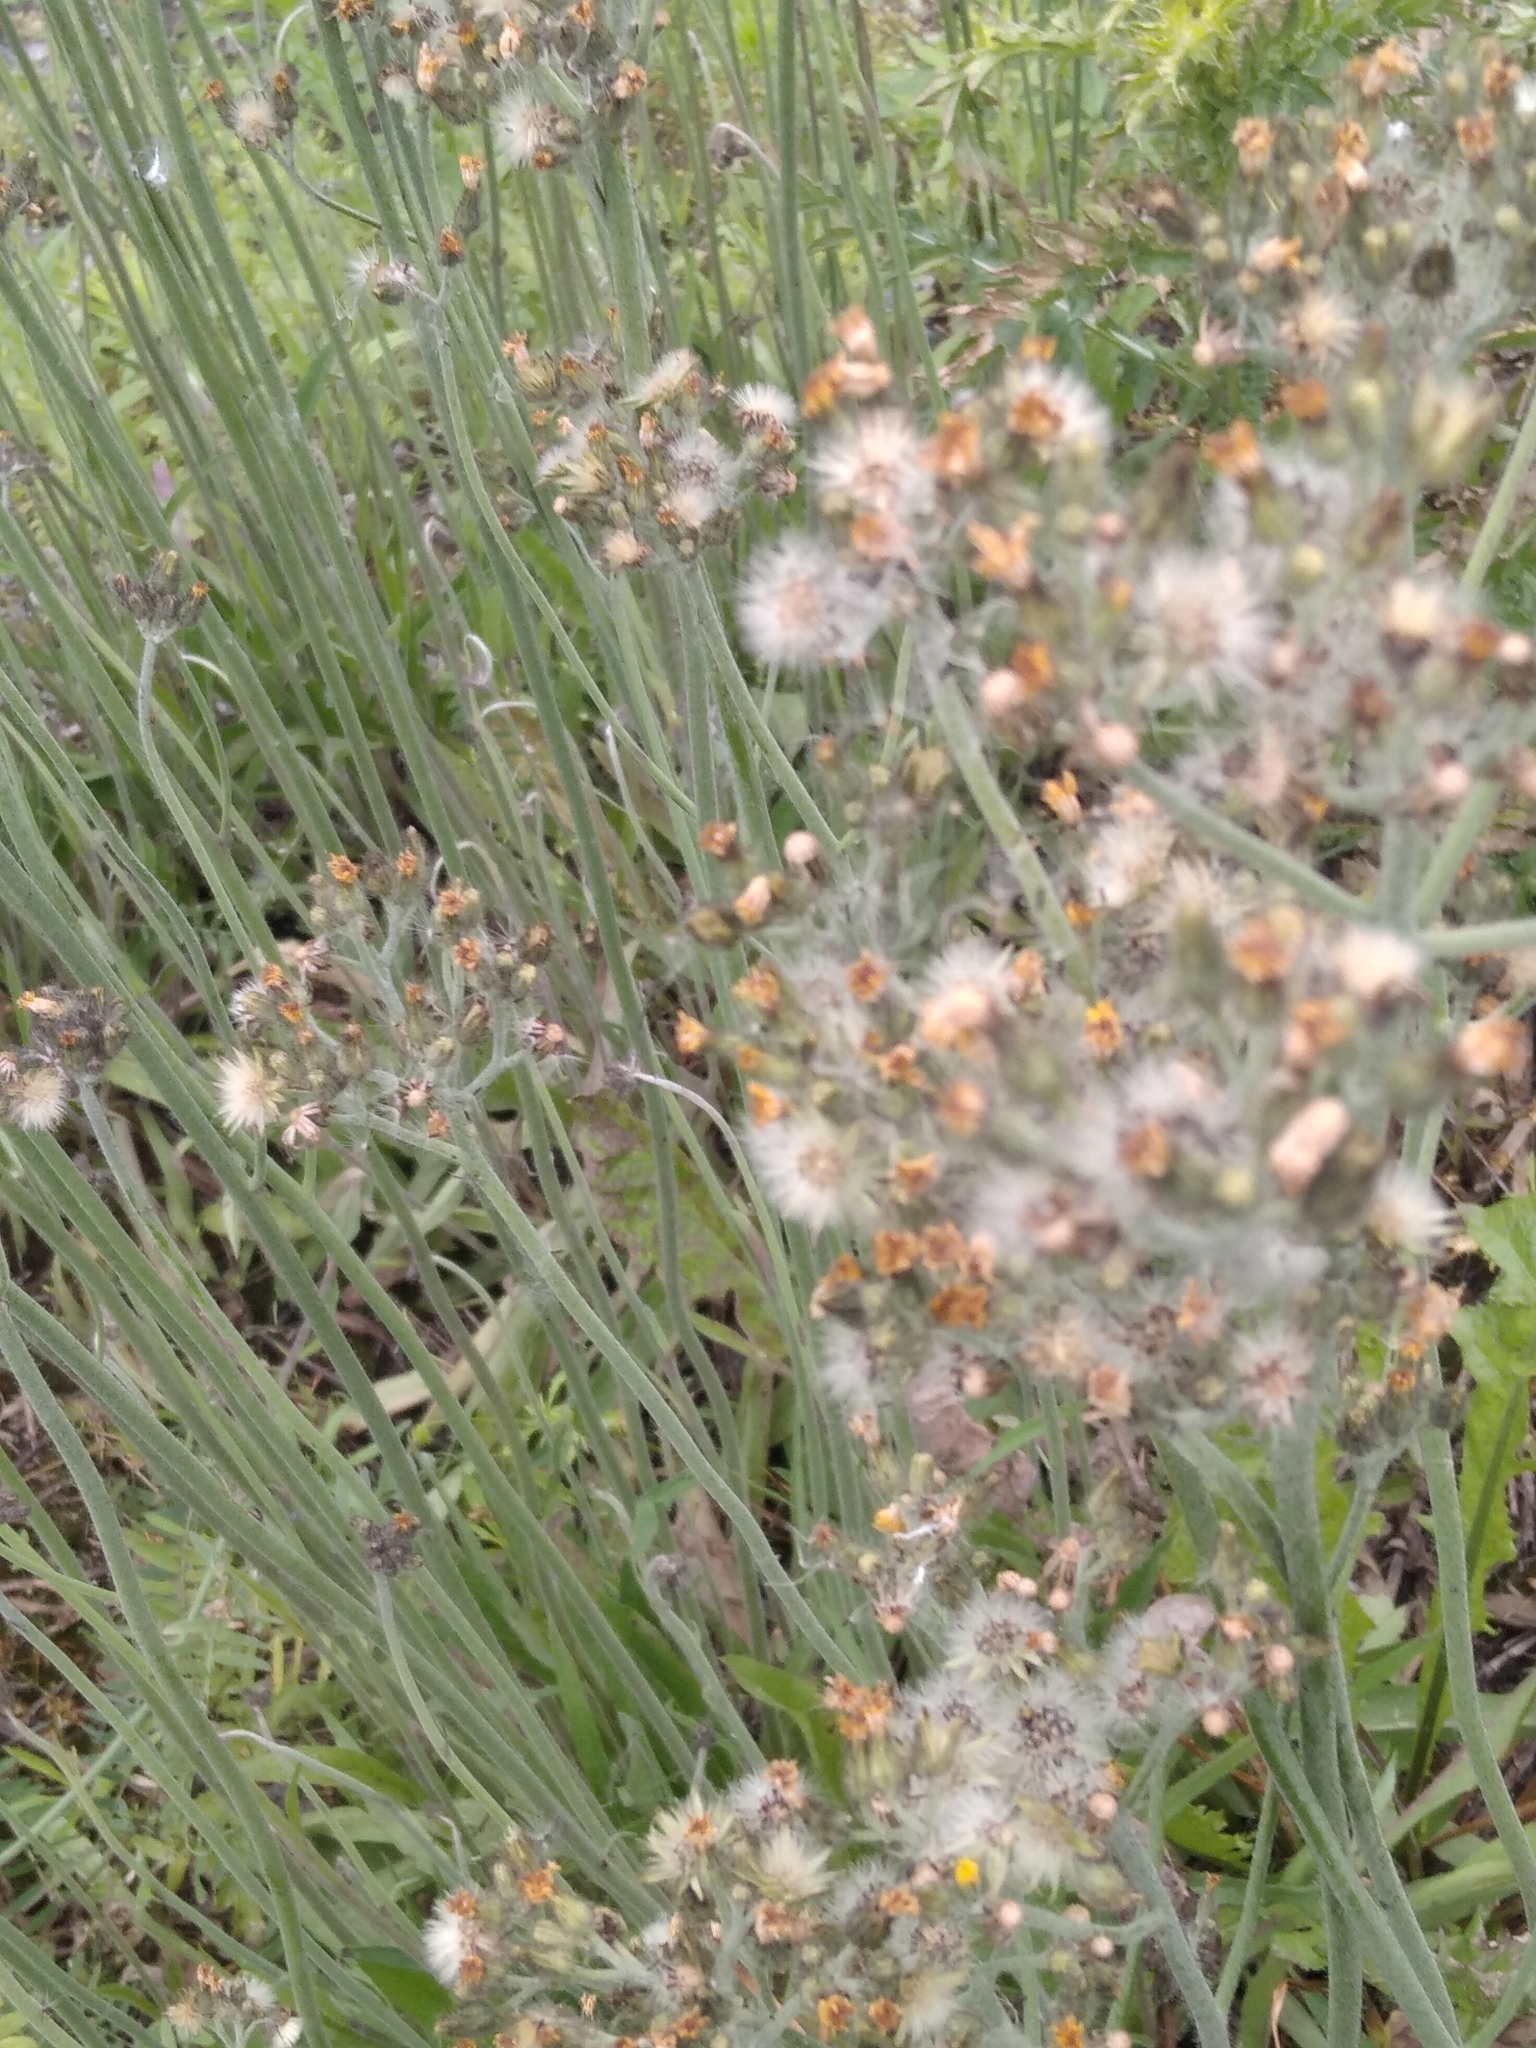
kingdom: Plantae
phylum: Tracheophyta
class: Magnoliopsida
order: Asterales
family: Asteraceae
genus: Pilosella
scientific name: Pilosella
